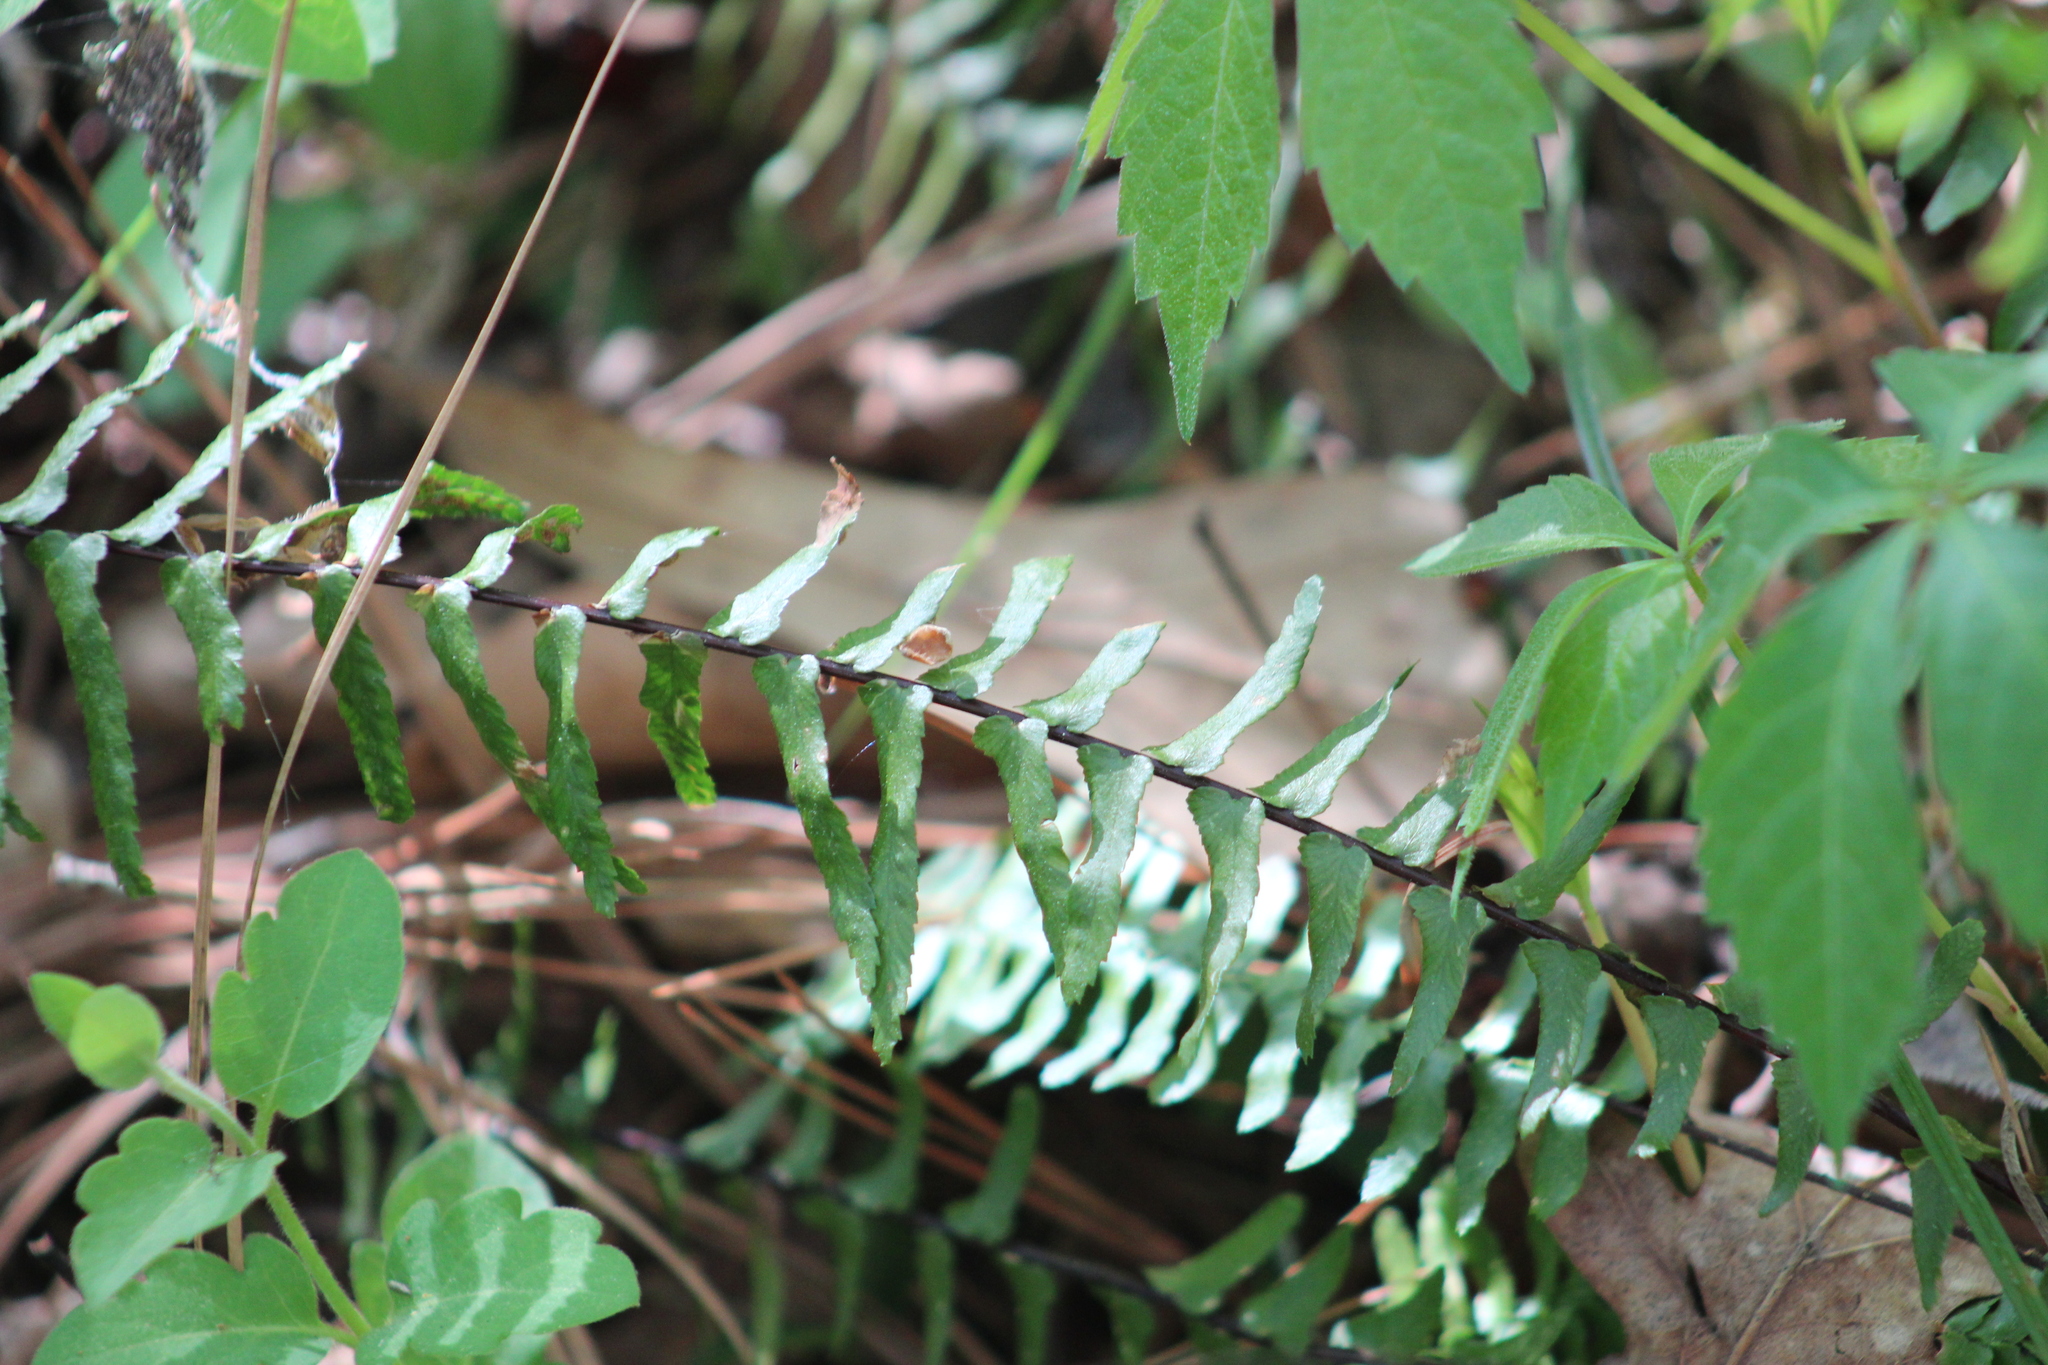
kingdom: Plantae
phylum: Tracheophyta
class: Polypodiopsida
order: Polypodiales
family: Aspleniaceae
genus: Asplenium
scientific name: Asplenium platyneuron
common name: Ebony spleenwort
